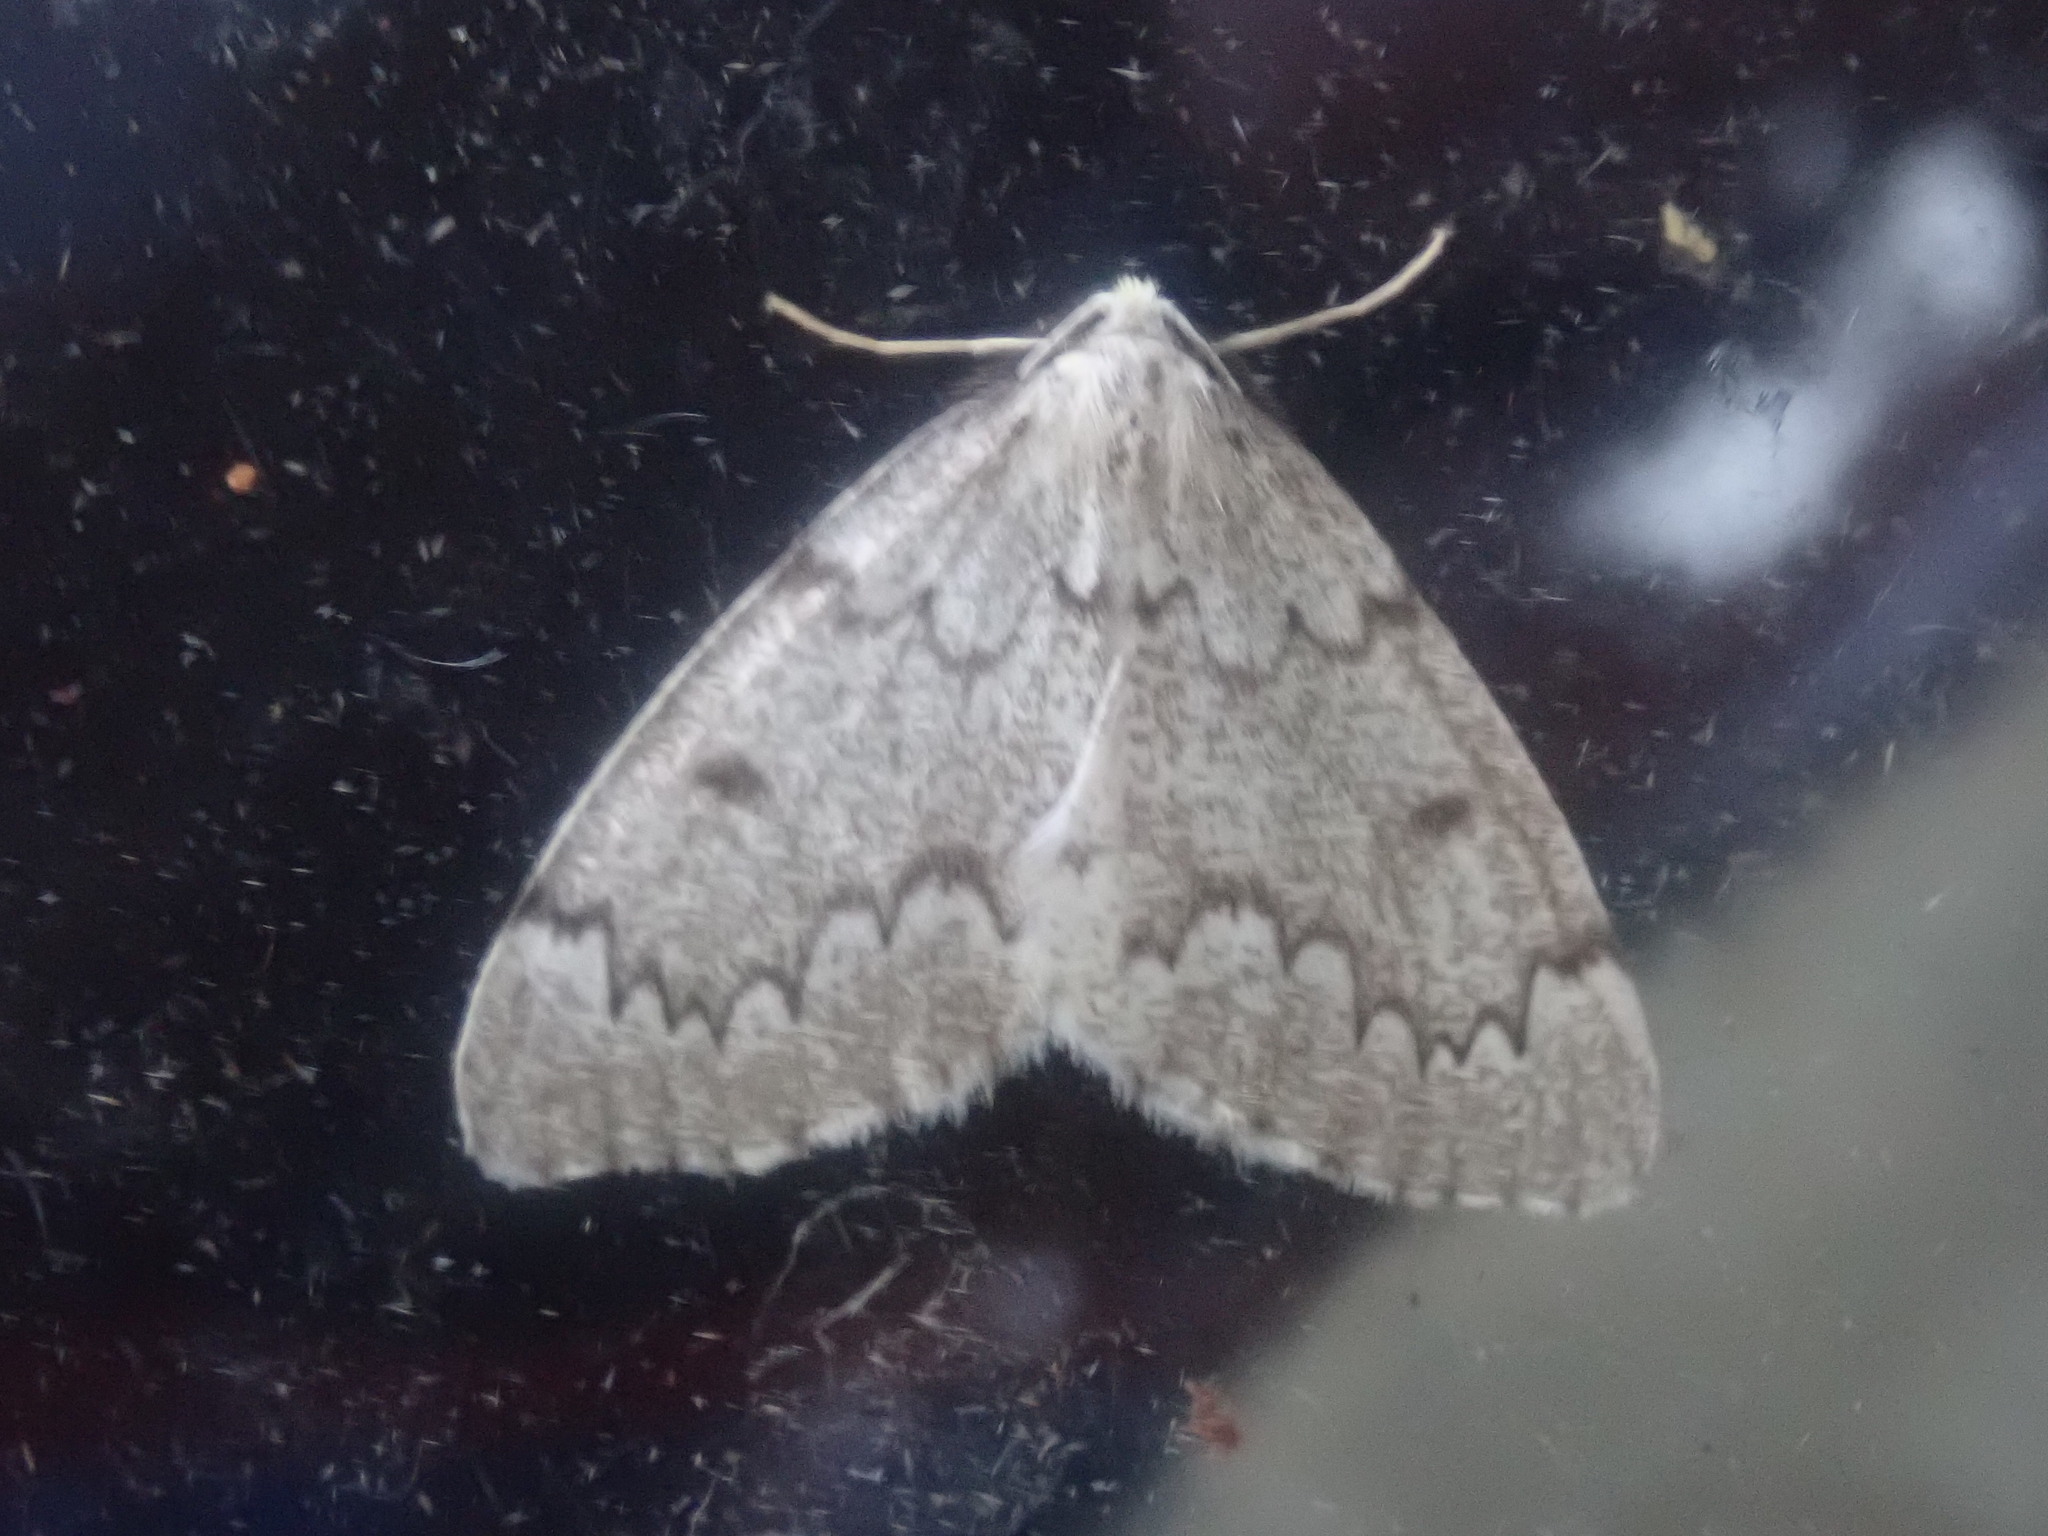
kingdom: Animalia
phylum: Arthropoda
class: Insecta
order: Lepidoptera
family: Geometridae
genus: Nepytia
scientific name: Nepytia canosaria
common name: False hemlock looper
